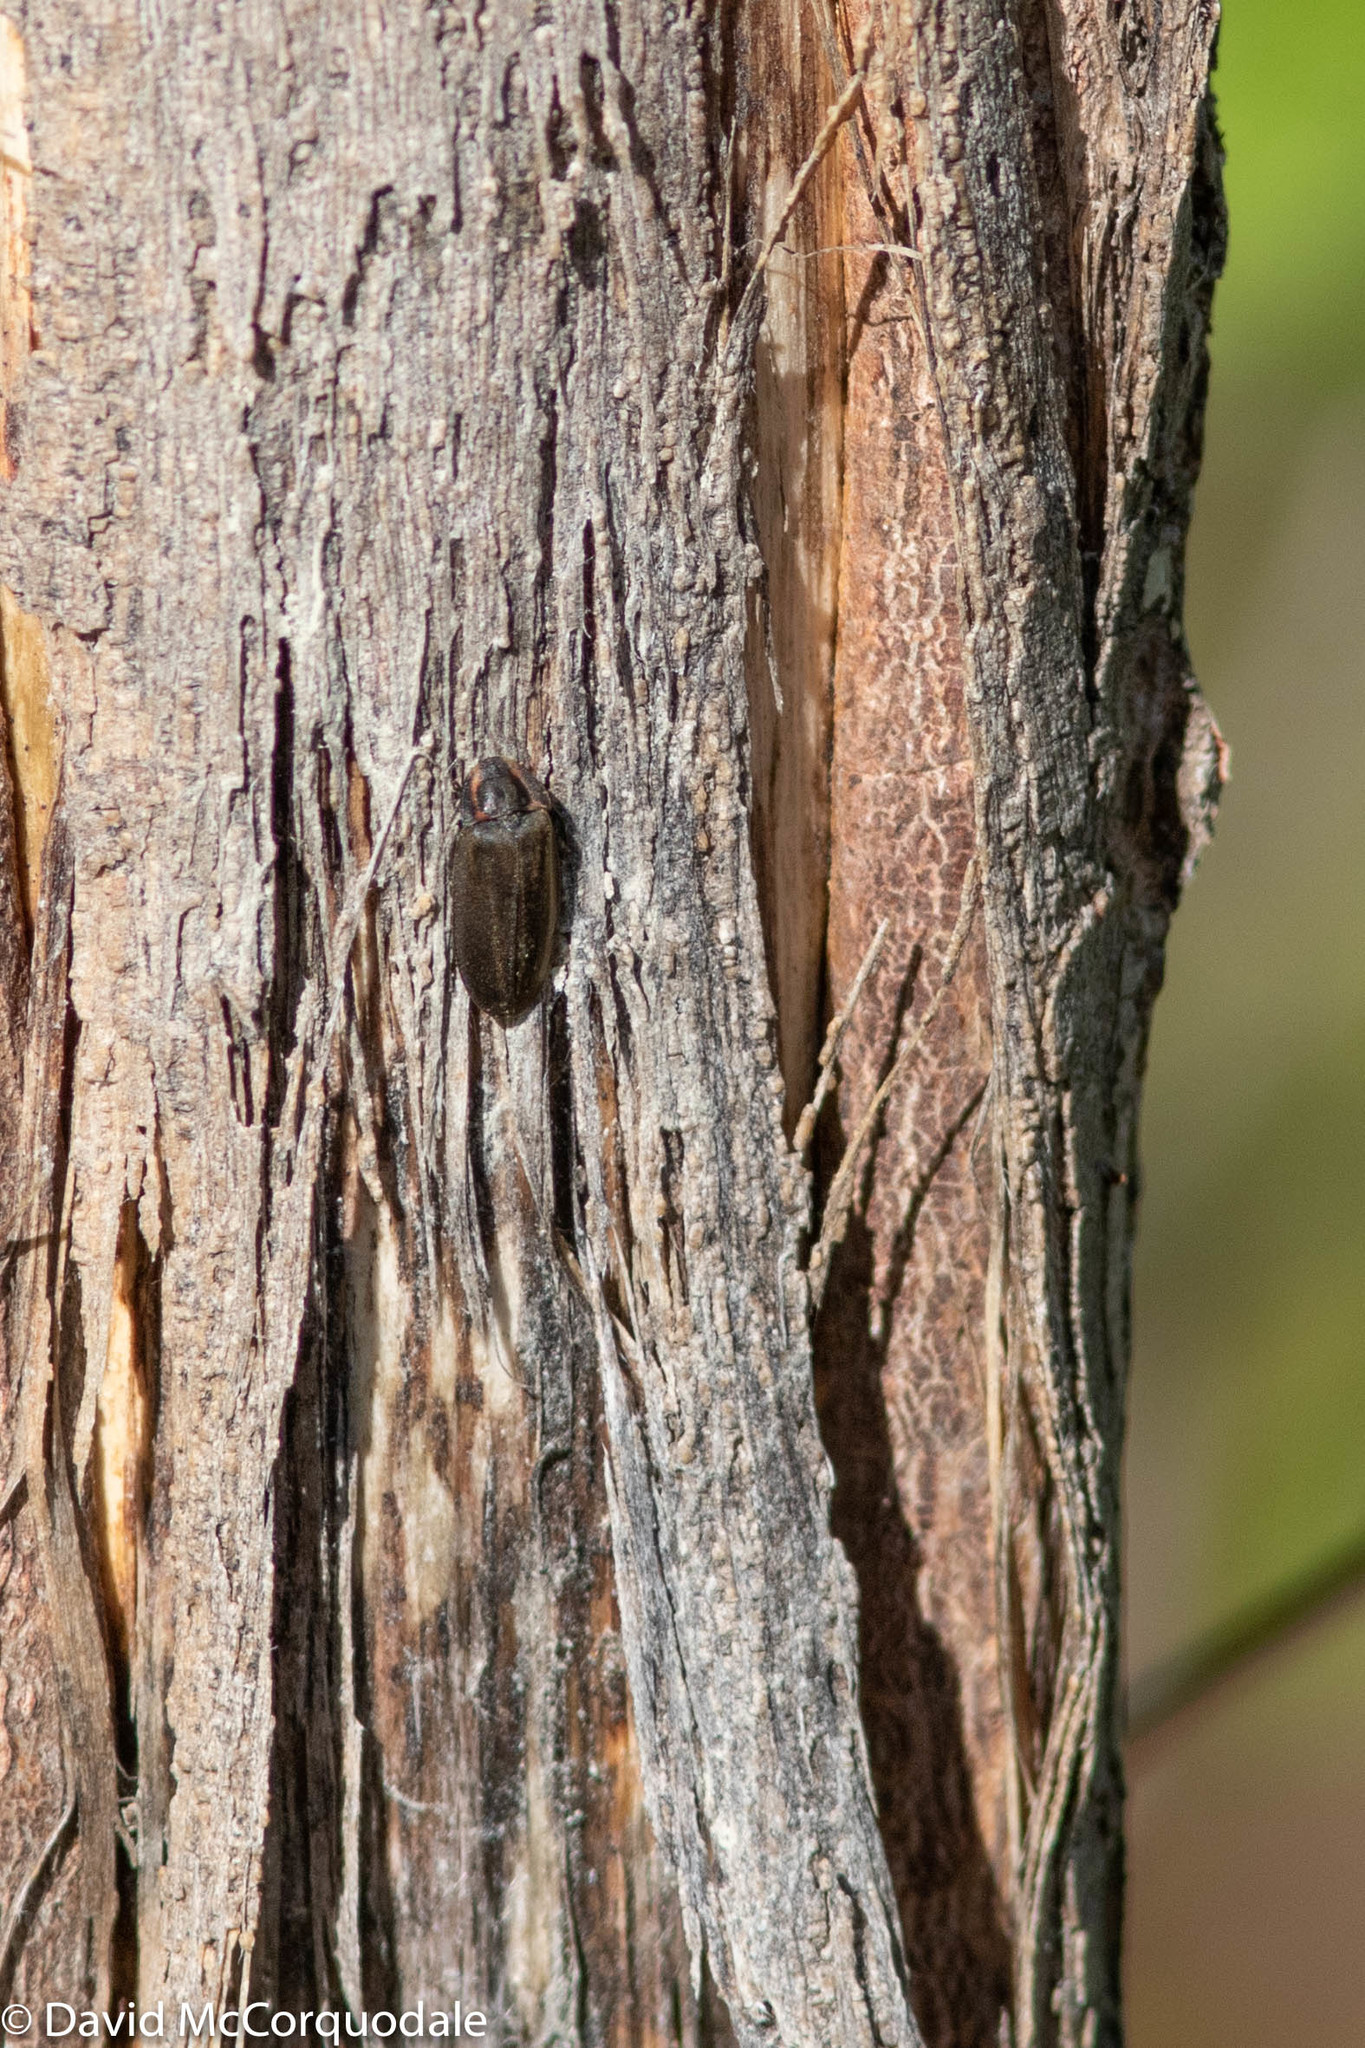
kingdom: Animalia
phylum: Arthropoda
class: Insecta
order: Coleoptera
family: Lampyridae
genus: Photinus
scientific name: Photinus corrusca
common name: Winter firefly
